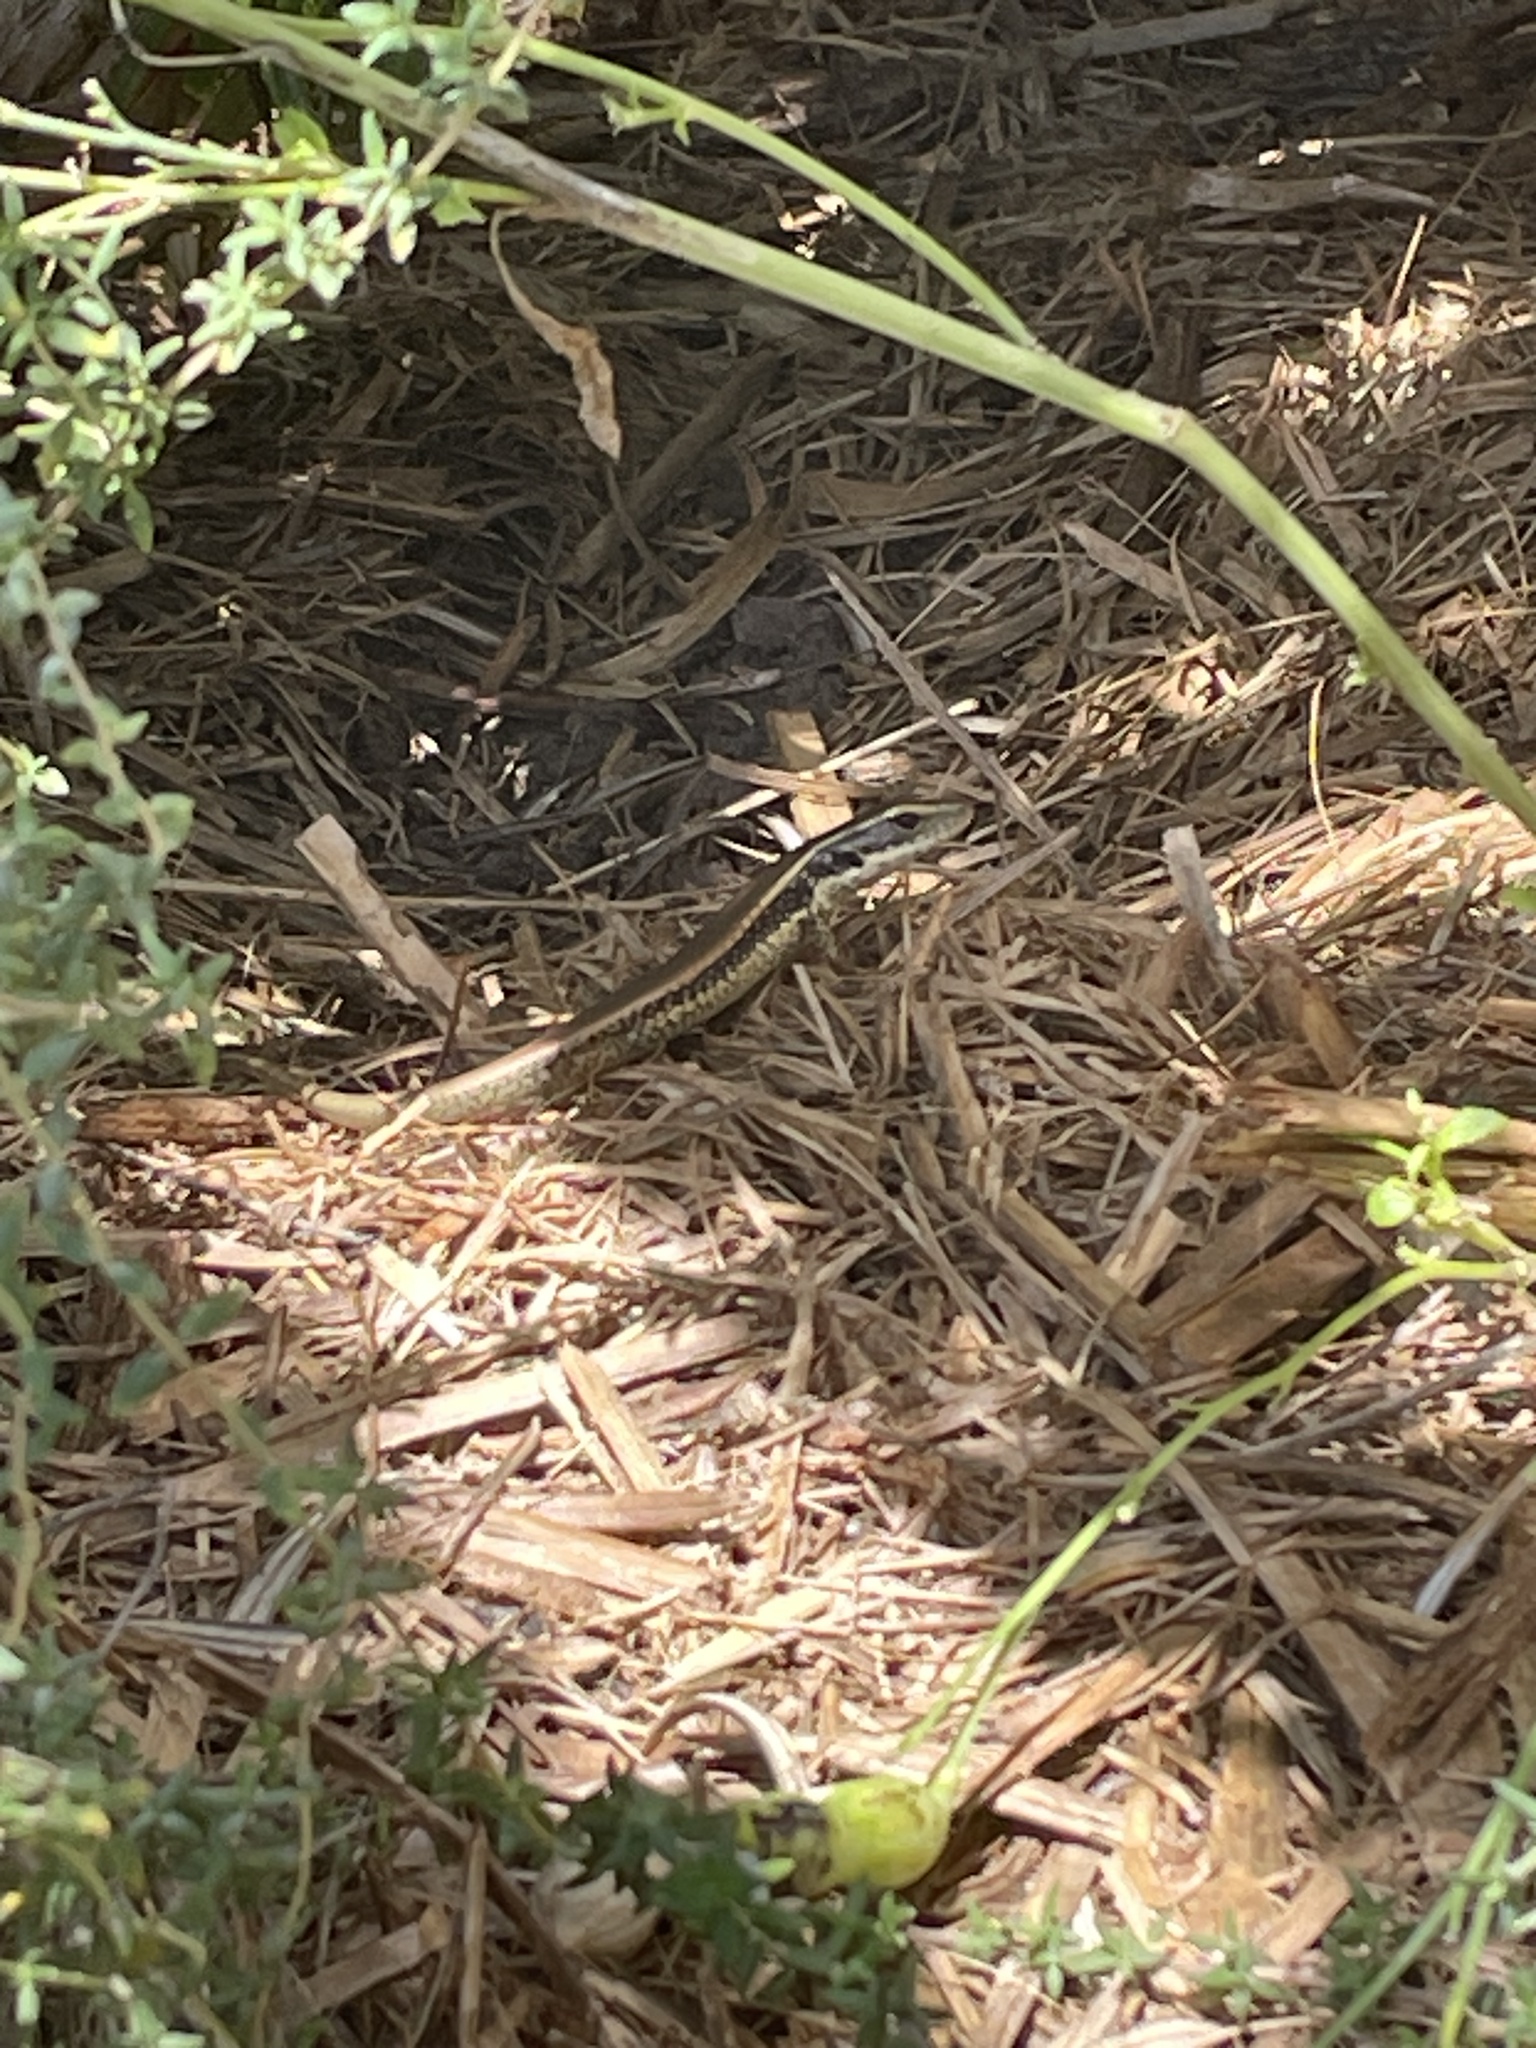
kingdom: Animalia
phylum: Chordata
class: Squamata
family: Scincidae
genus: Eulamprus
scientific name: Eulamprus quoyii
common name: Eastern water skink
